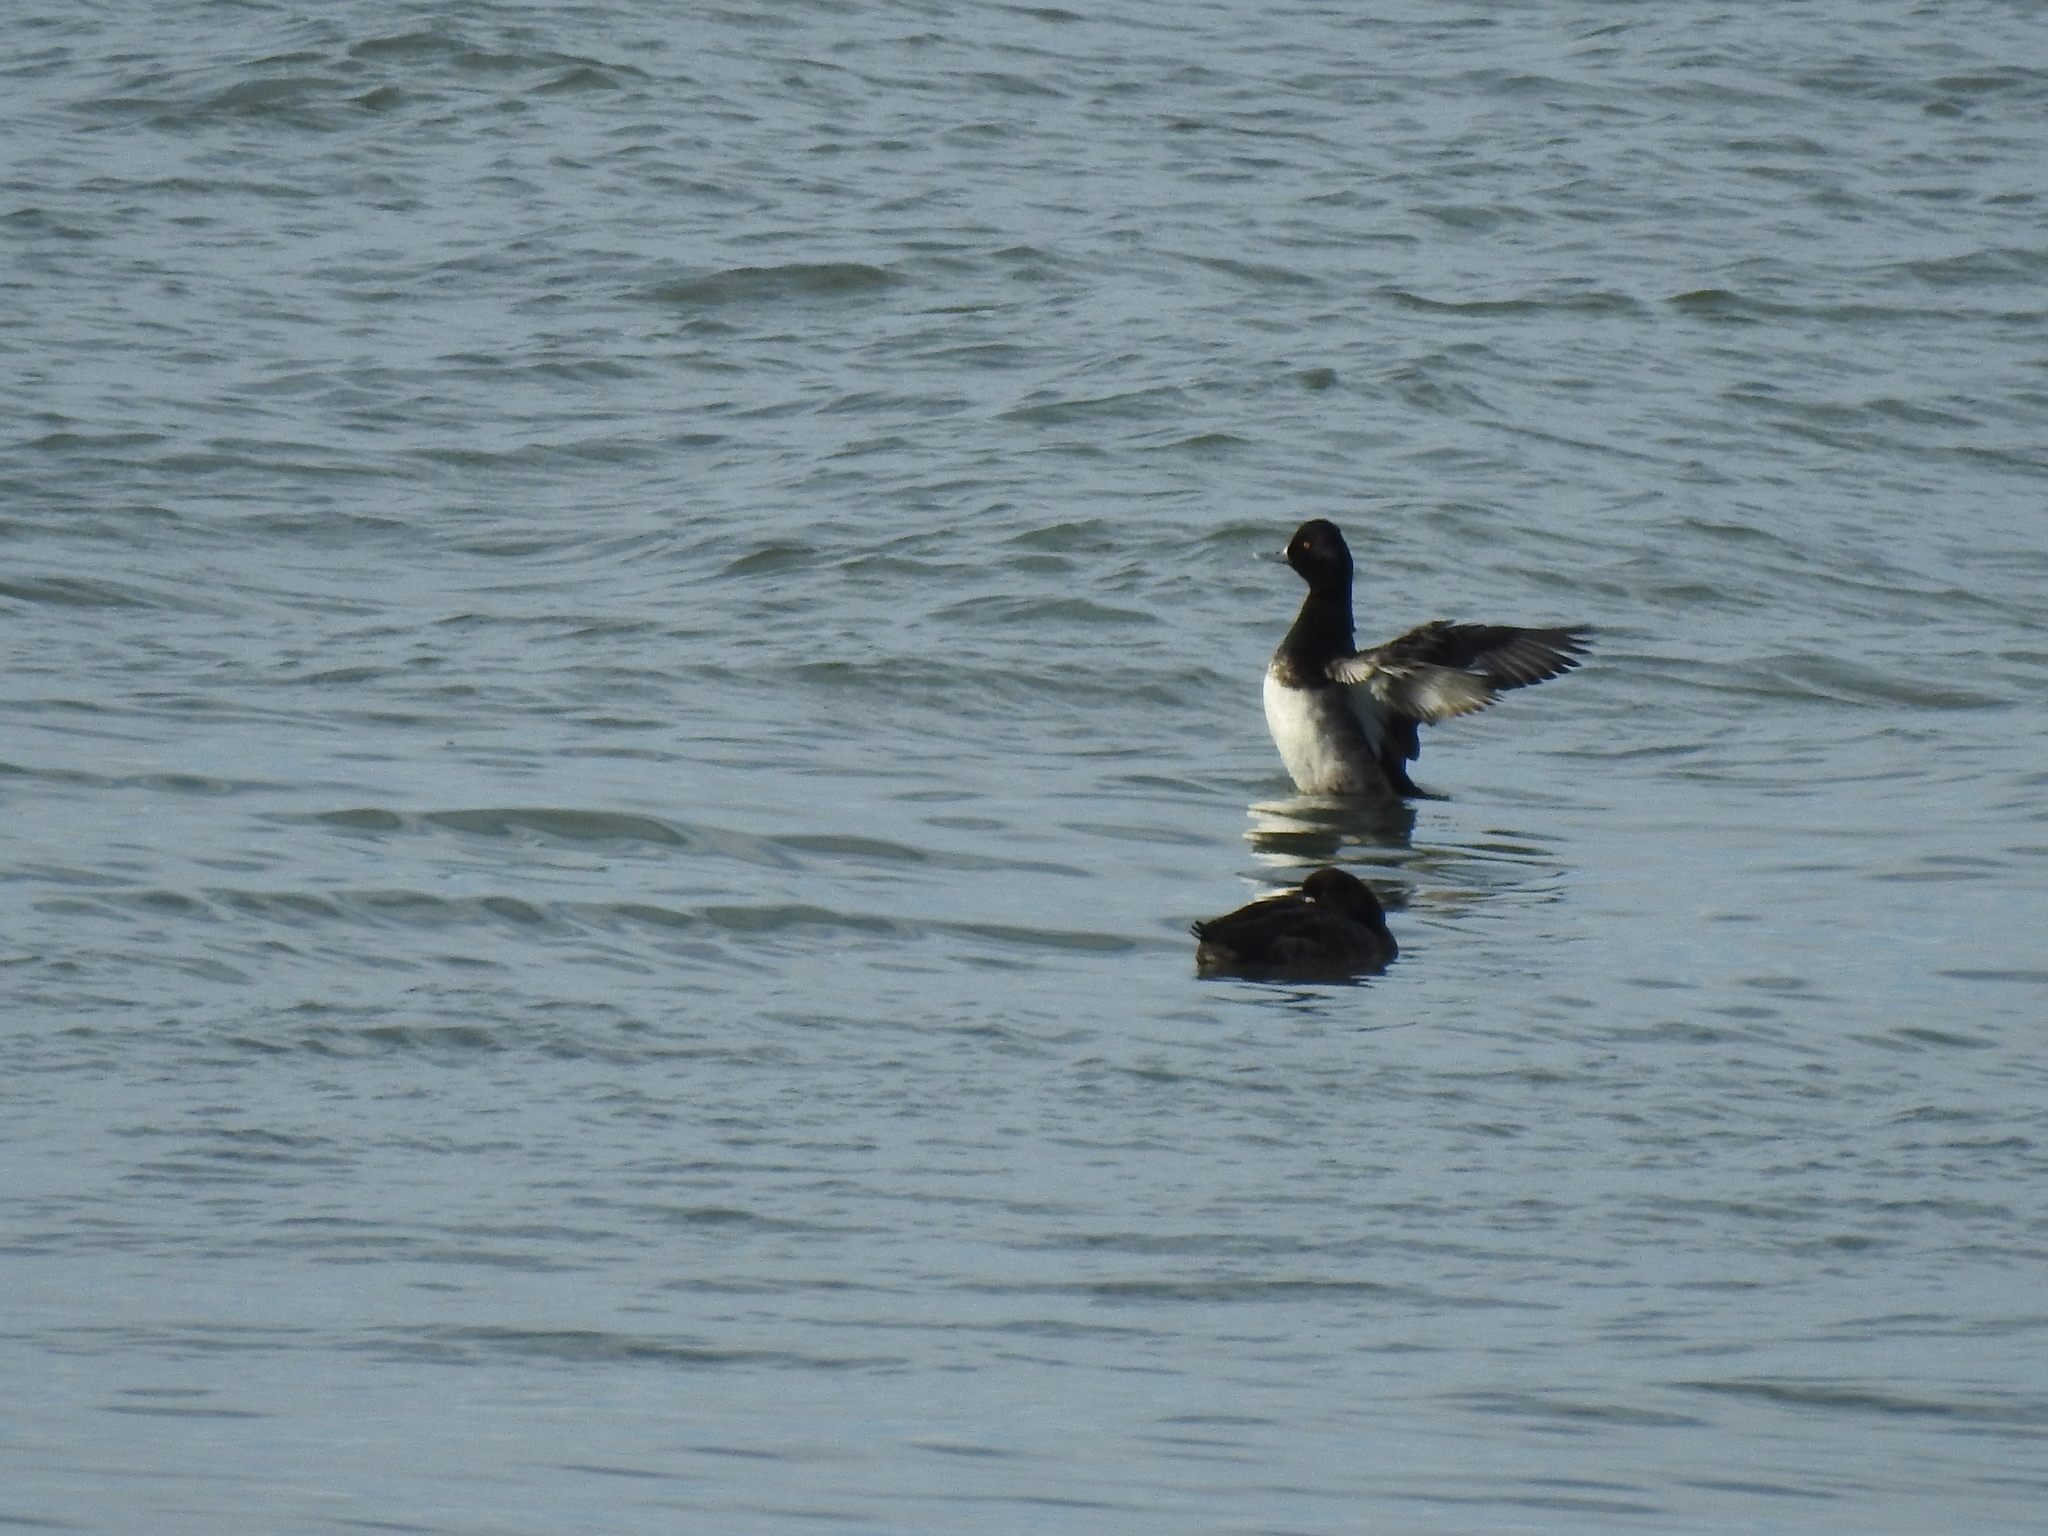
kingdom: Animalia
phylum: Chordata
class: Aves
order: Anseriformes
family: Anatidae
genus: Aythya
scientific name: Aythya affinis
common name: Lesser scaup
